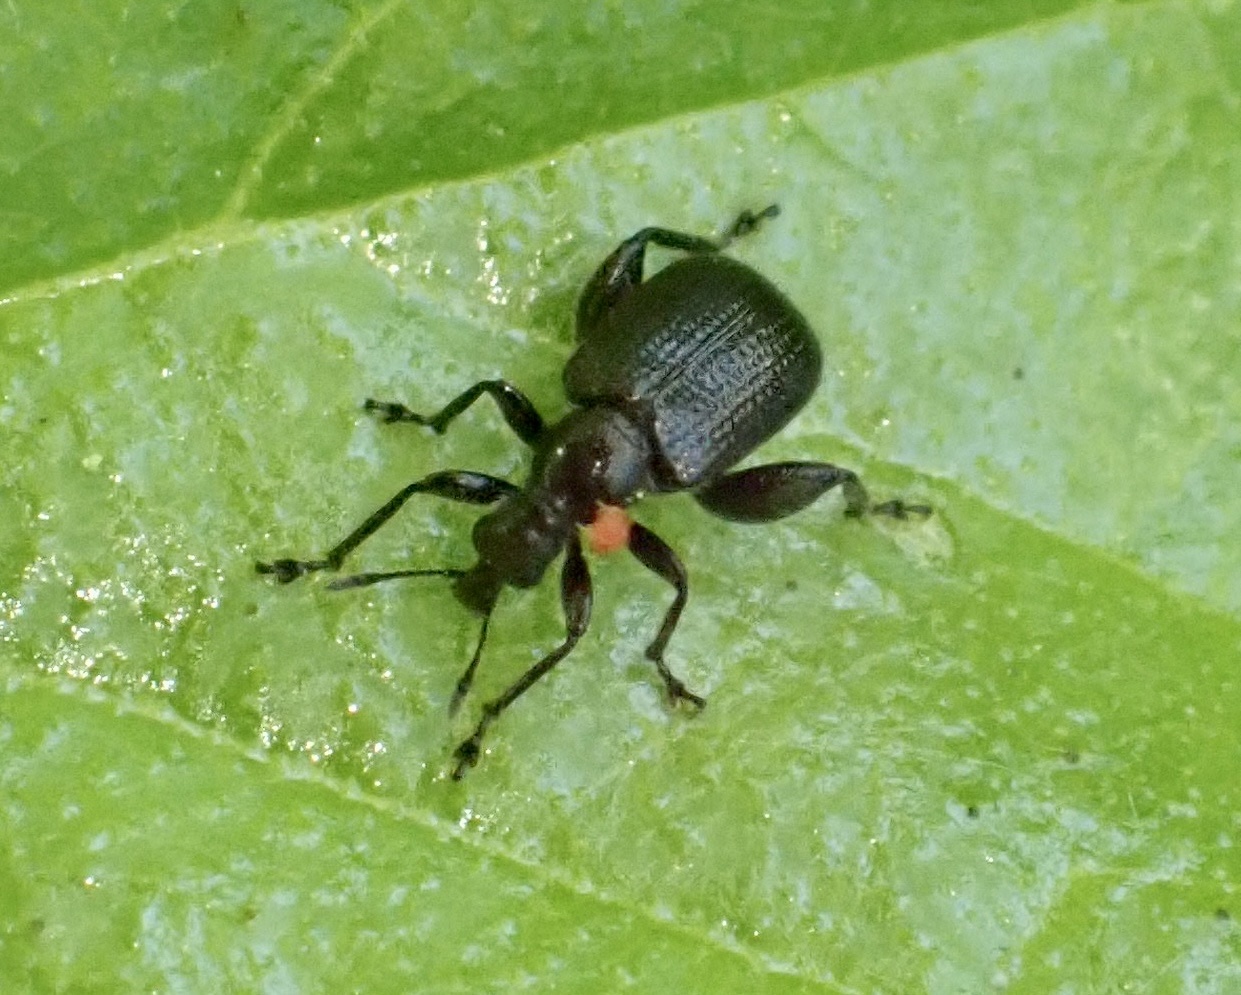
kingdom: Animalia
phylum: Arthropoda
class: Insecta
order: Coleoptera
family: Attelabidae
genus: Deporaus
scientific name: Deporaus betulae
